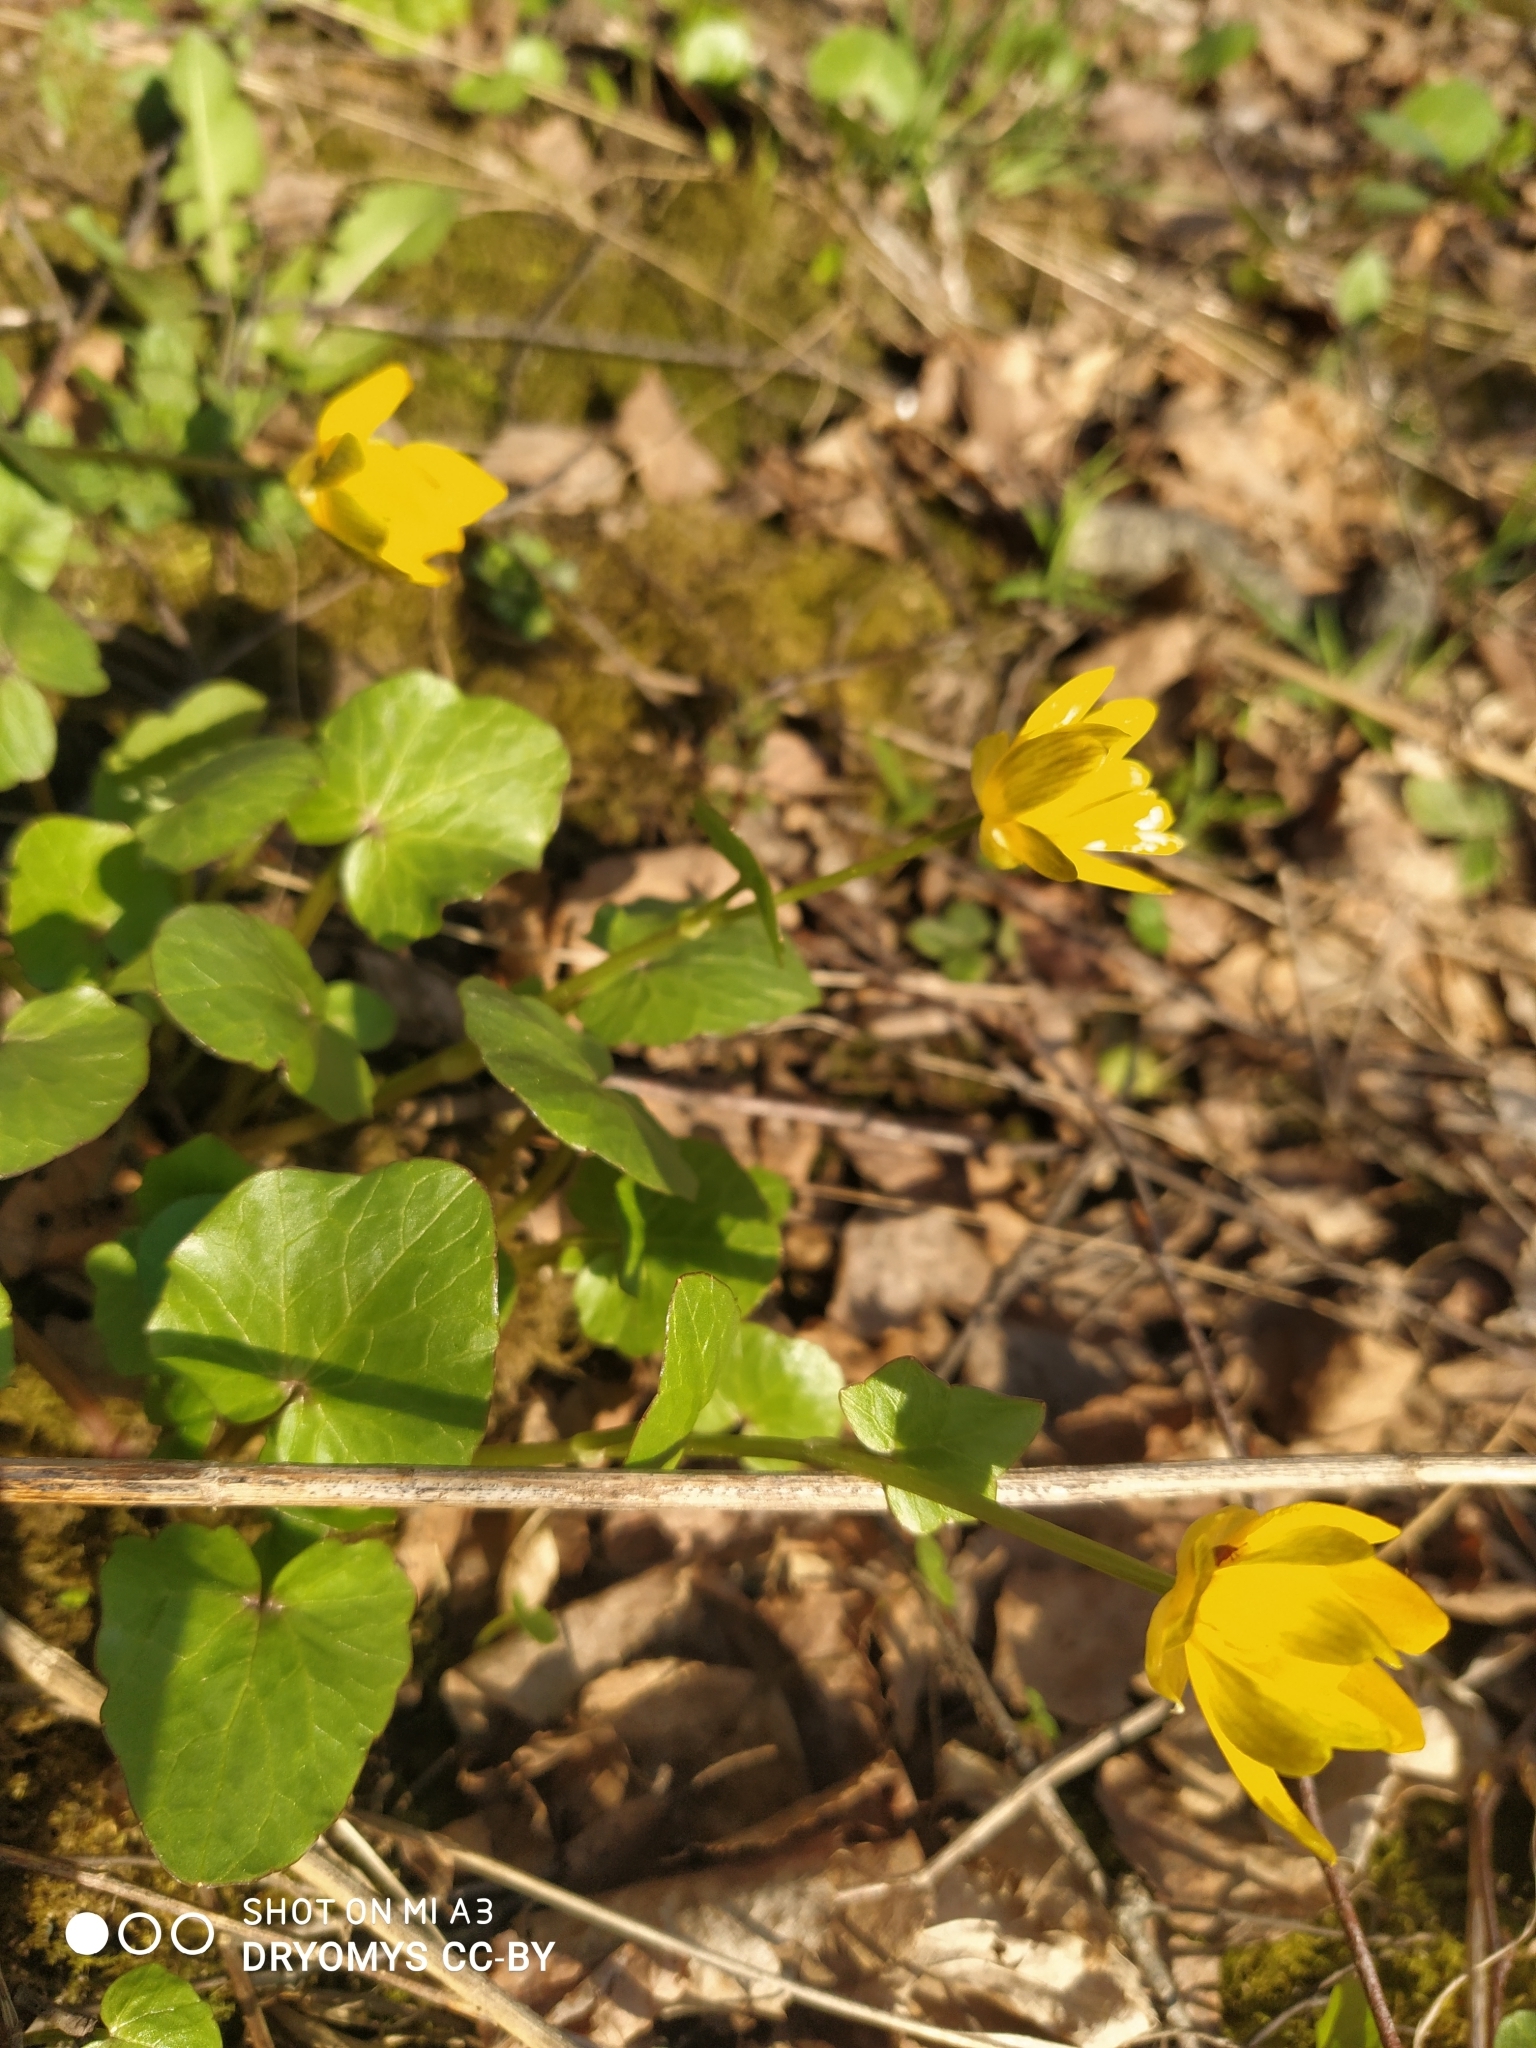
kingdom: Plantae
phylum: Tracheophyta
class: Magnoliopsida
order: Ranunculales
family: Ranunculaceae
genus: Ficaria
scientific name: Ficaria verna
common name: Lesser celandine
